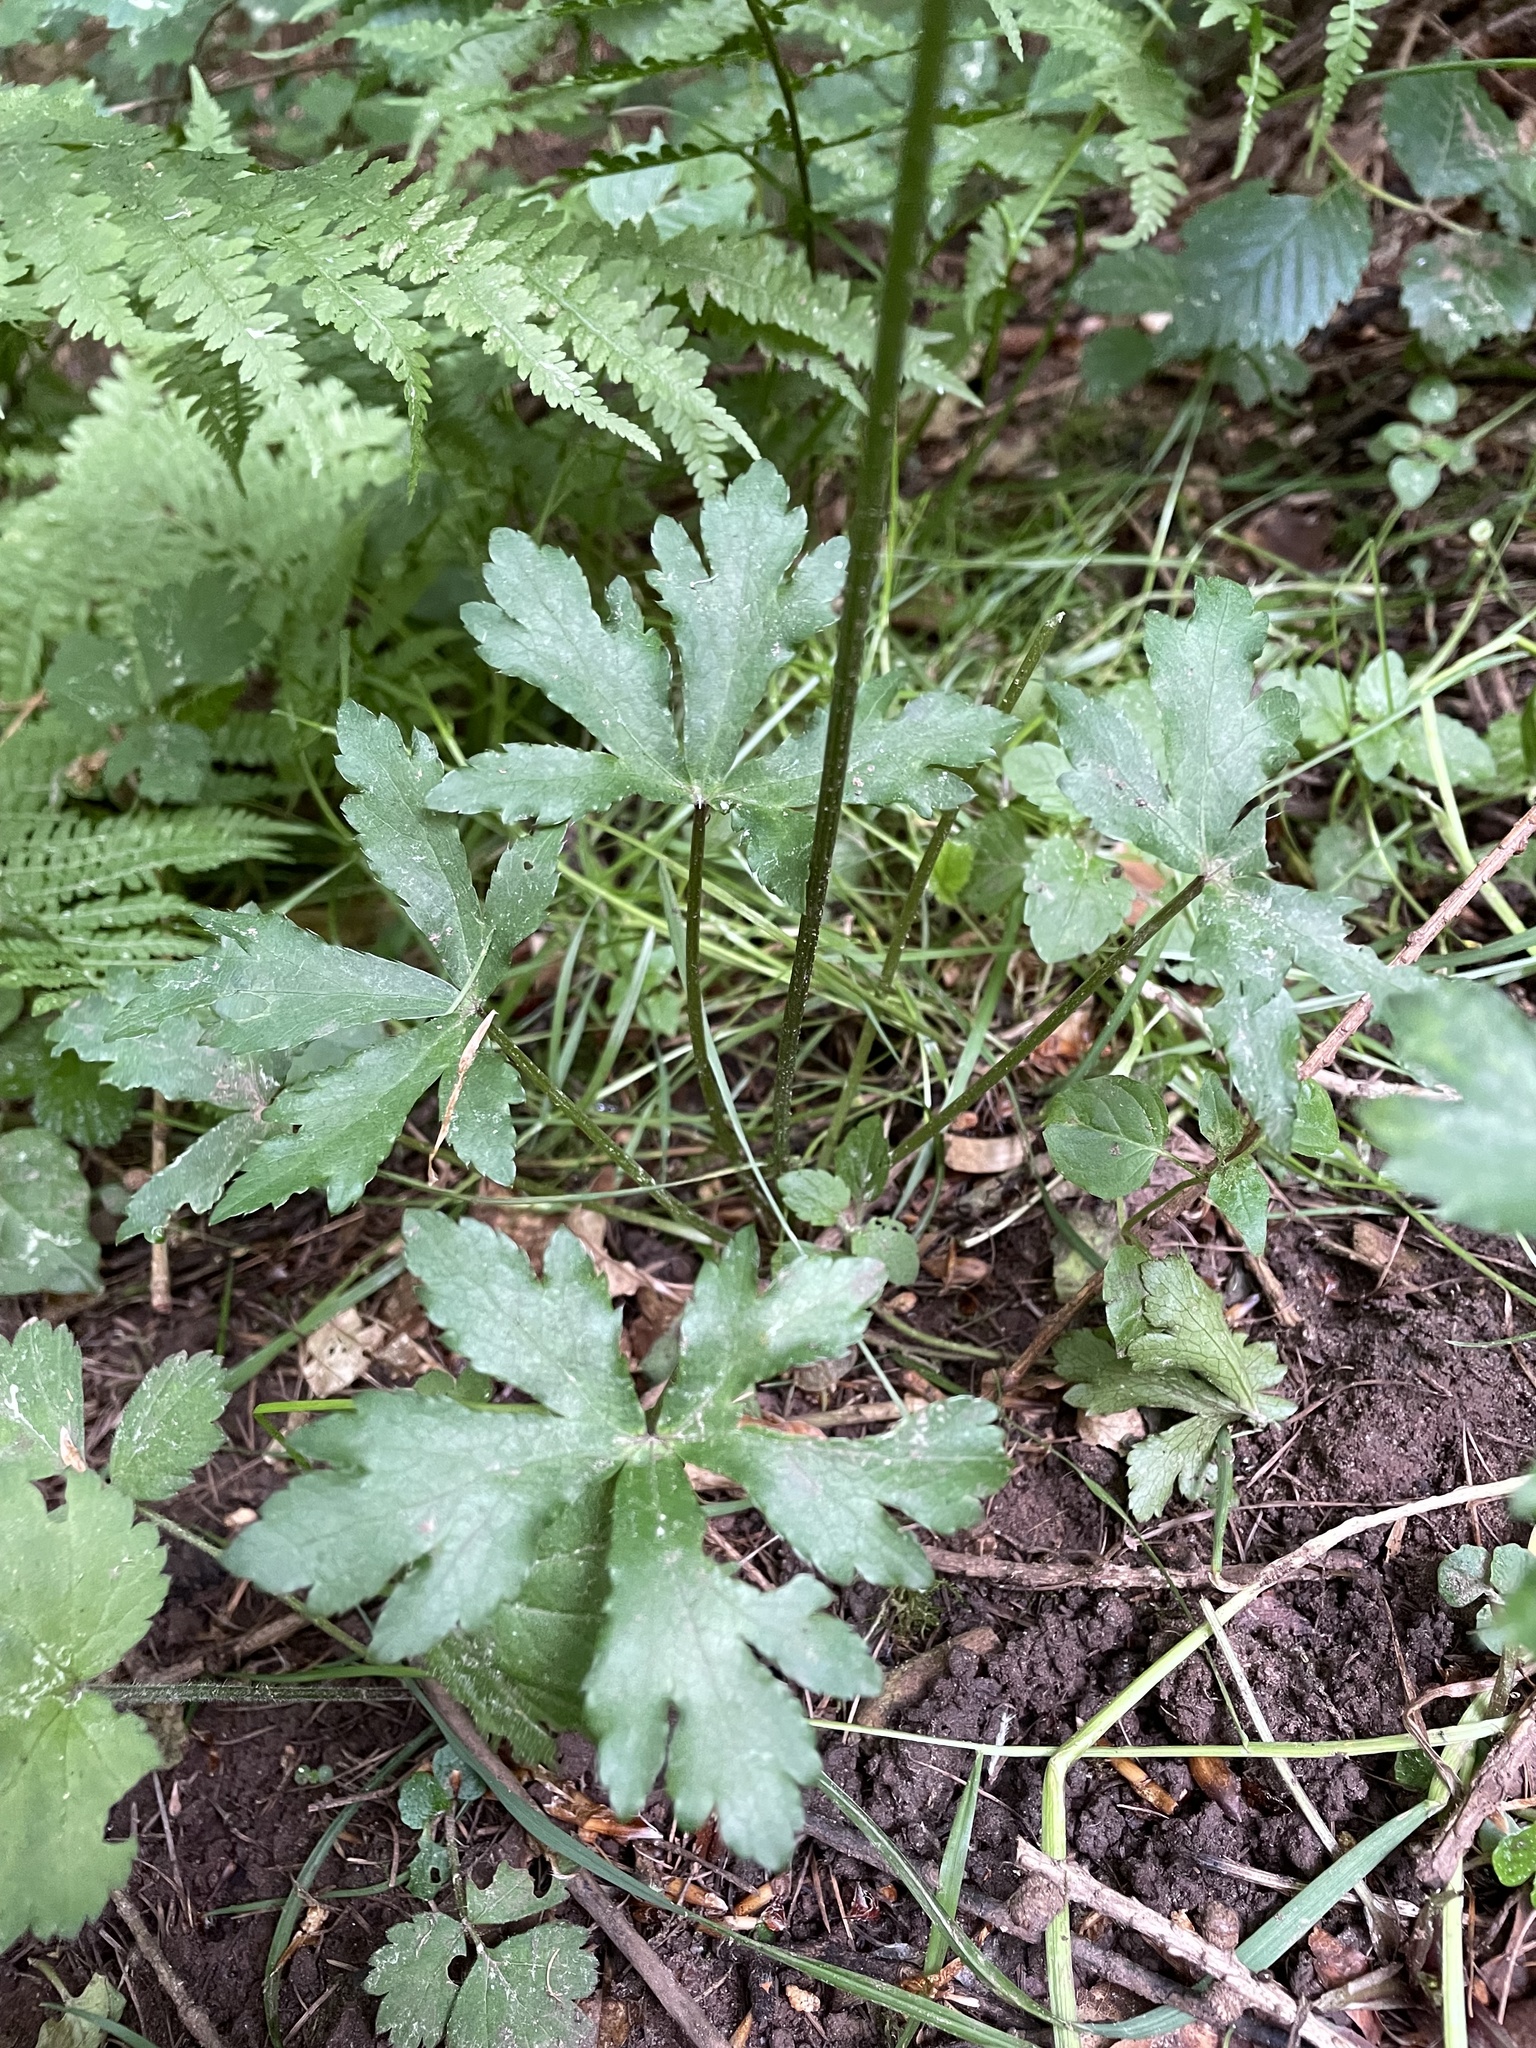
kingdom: Plantae
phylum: Tracheophyta
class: Magnoliopsida
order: Apiales
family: Apiaceae
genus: Sanicula
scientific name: Sanicula europaea
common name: Sanicle
